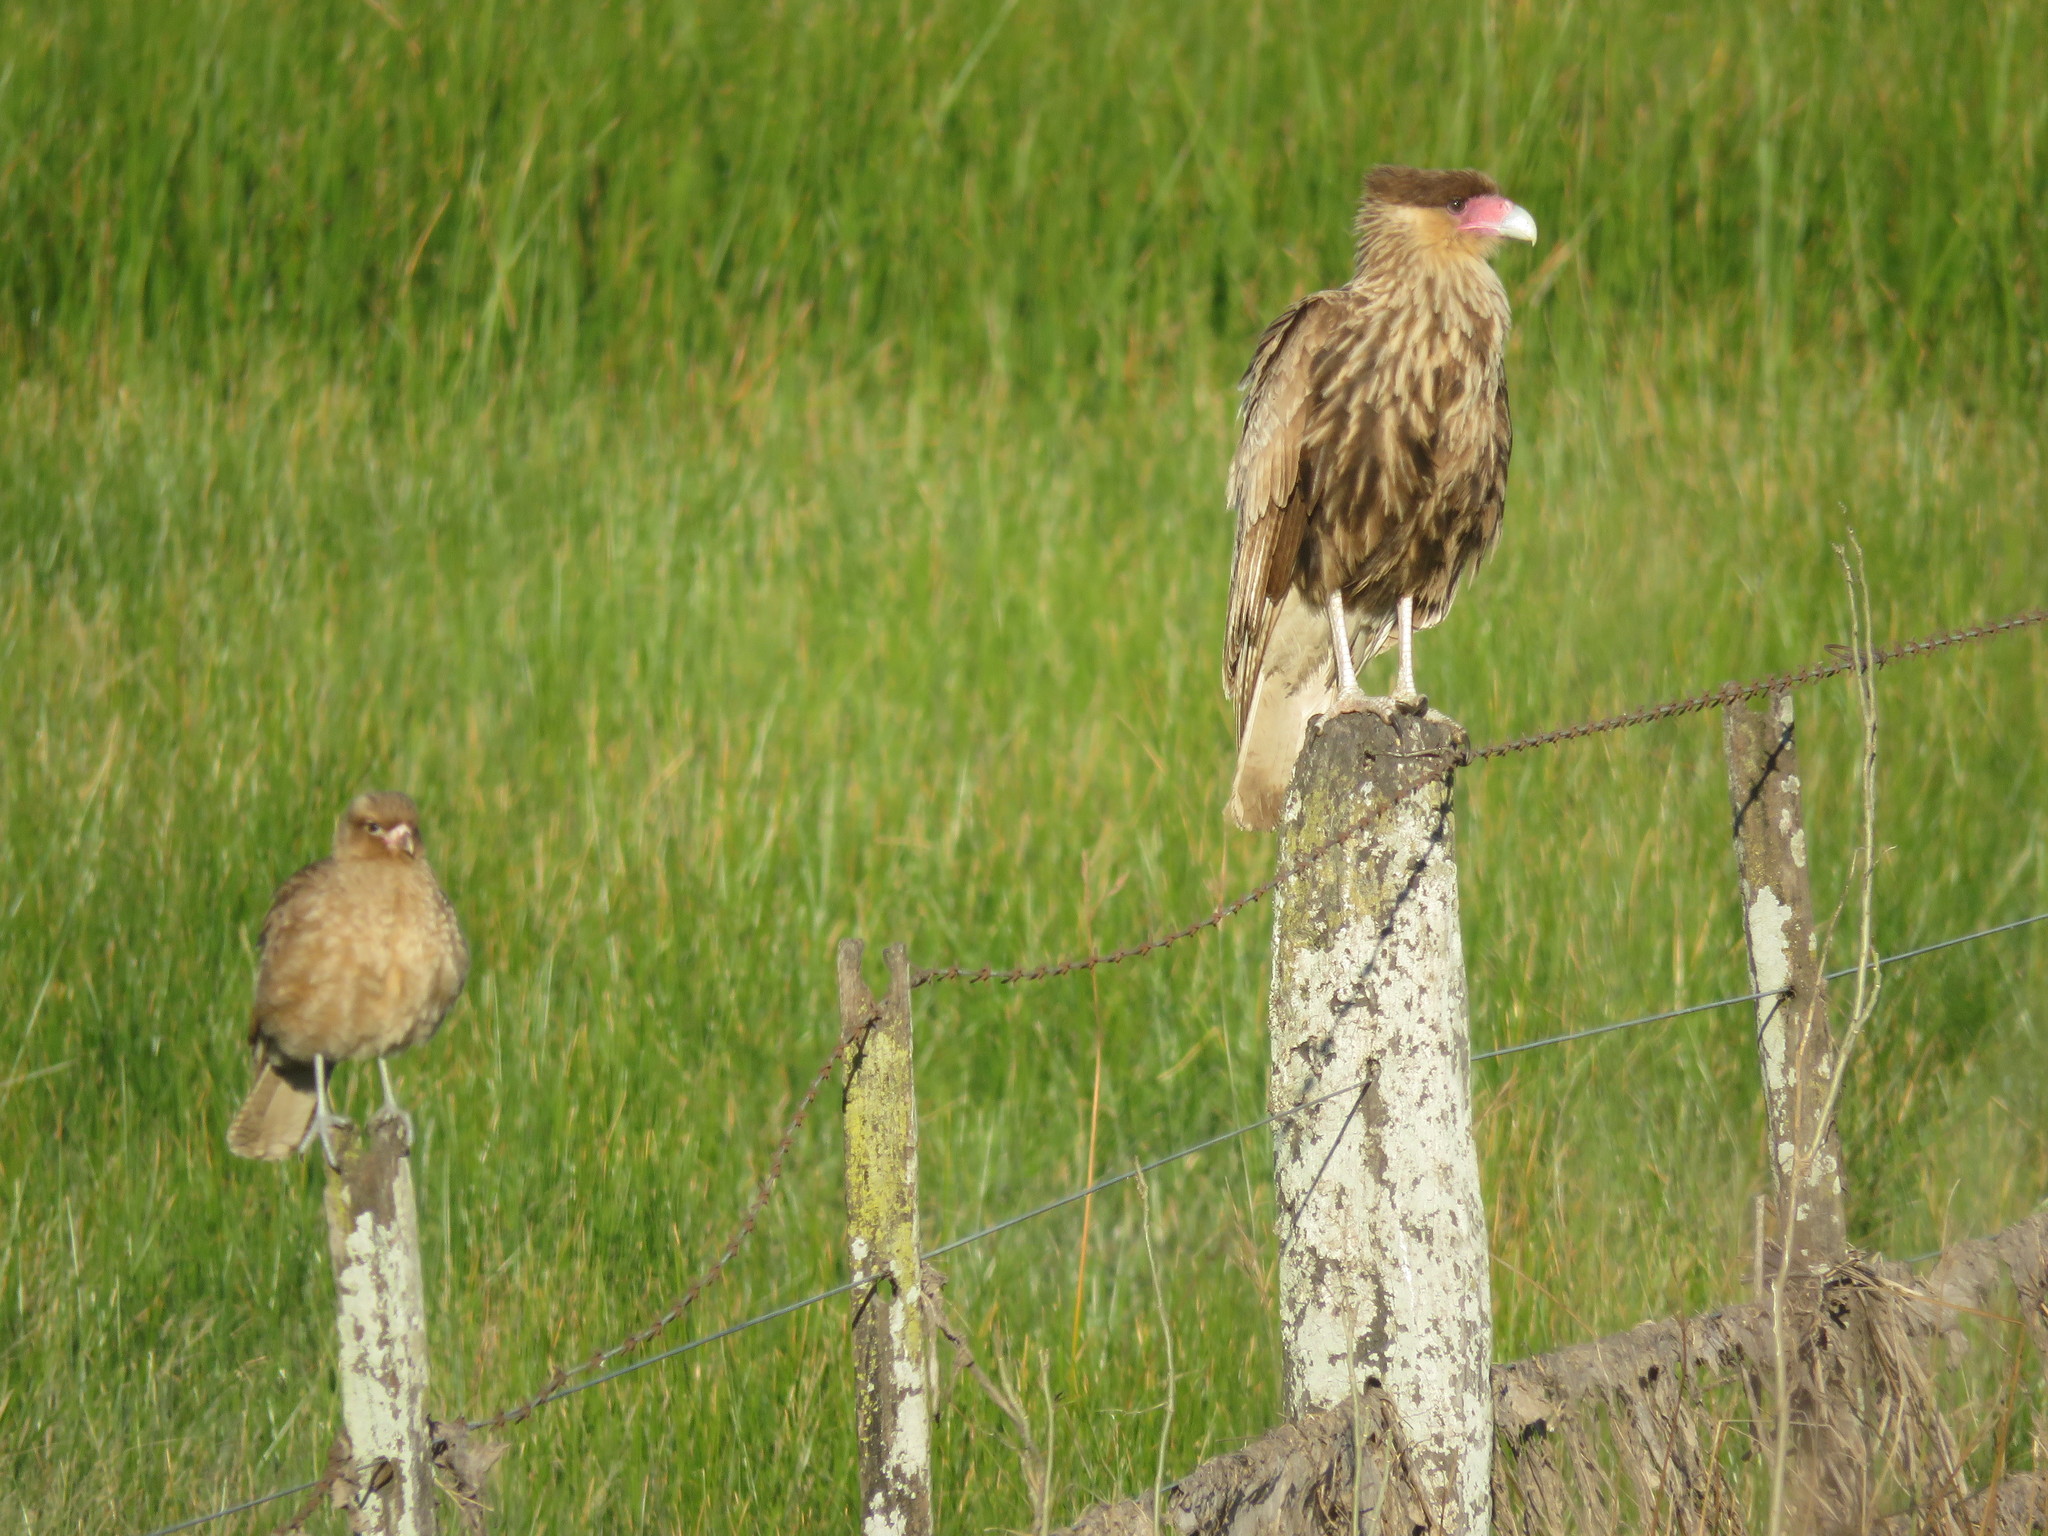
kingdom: Animalia
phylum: Chordata
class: Aves
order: Falconiformes
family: Falconidae
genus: Caracara
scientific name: Caracara plancus
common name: Southern caracara
